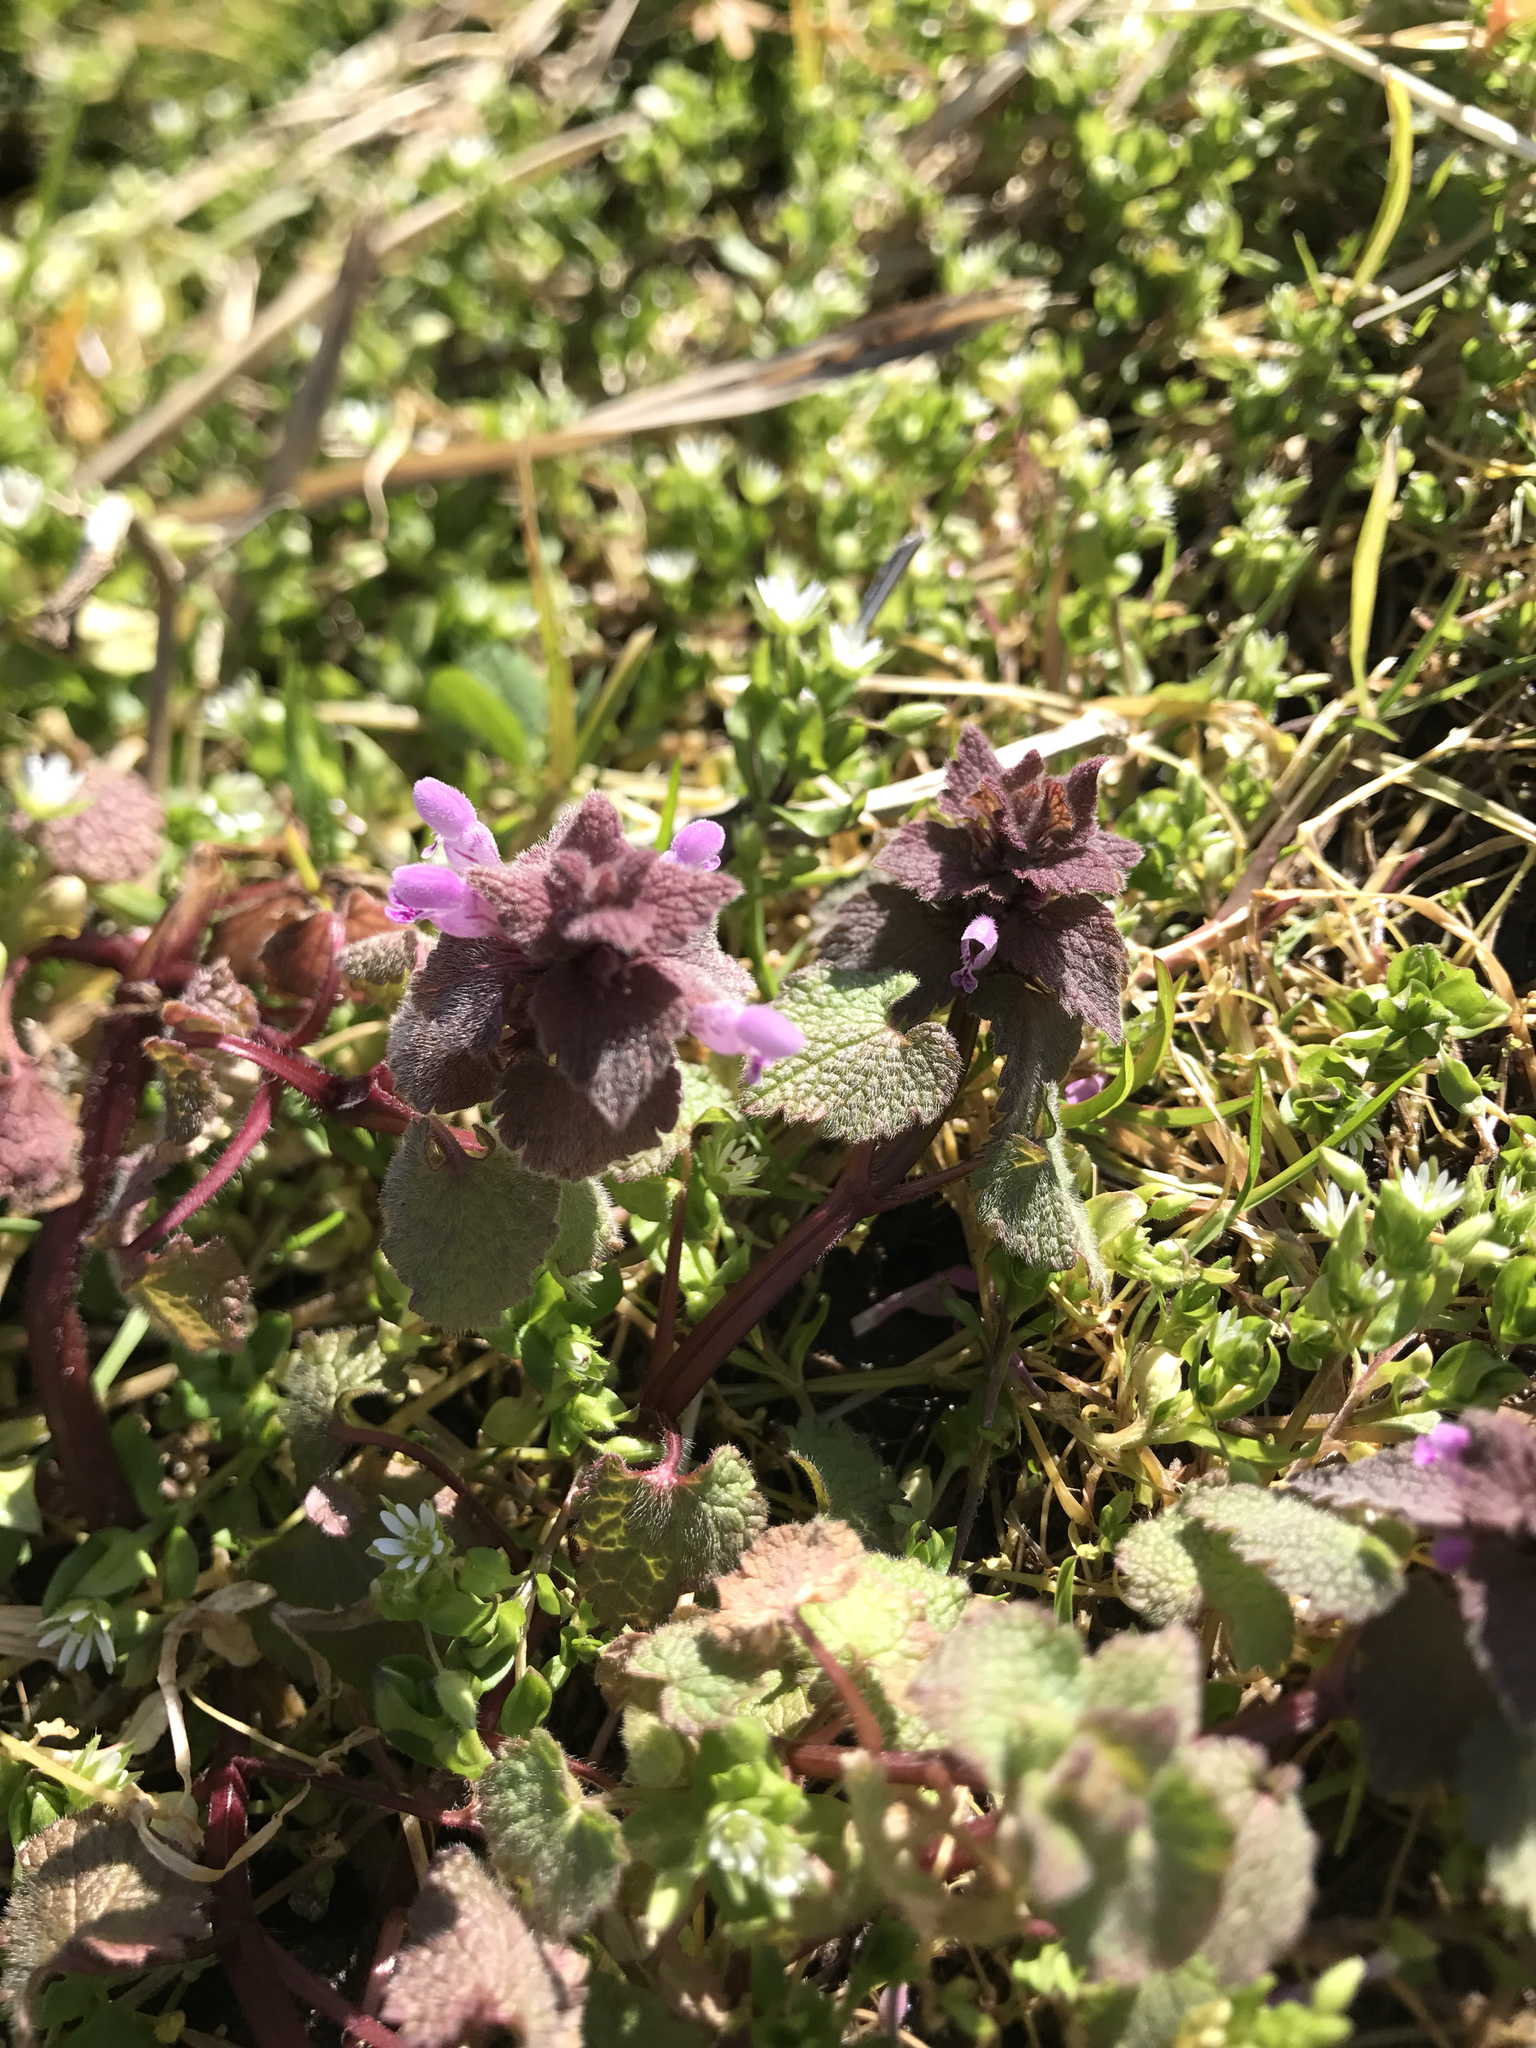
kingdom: Plantae
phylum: Tracheophyta
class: Magnoliopsida
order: Lamiales
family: Lamiaceae
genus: Lamium
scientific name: Lamium purpureum
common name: Red dead-nettle
